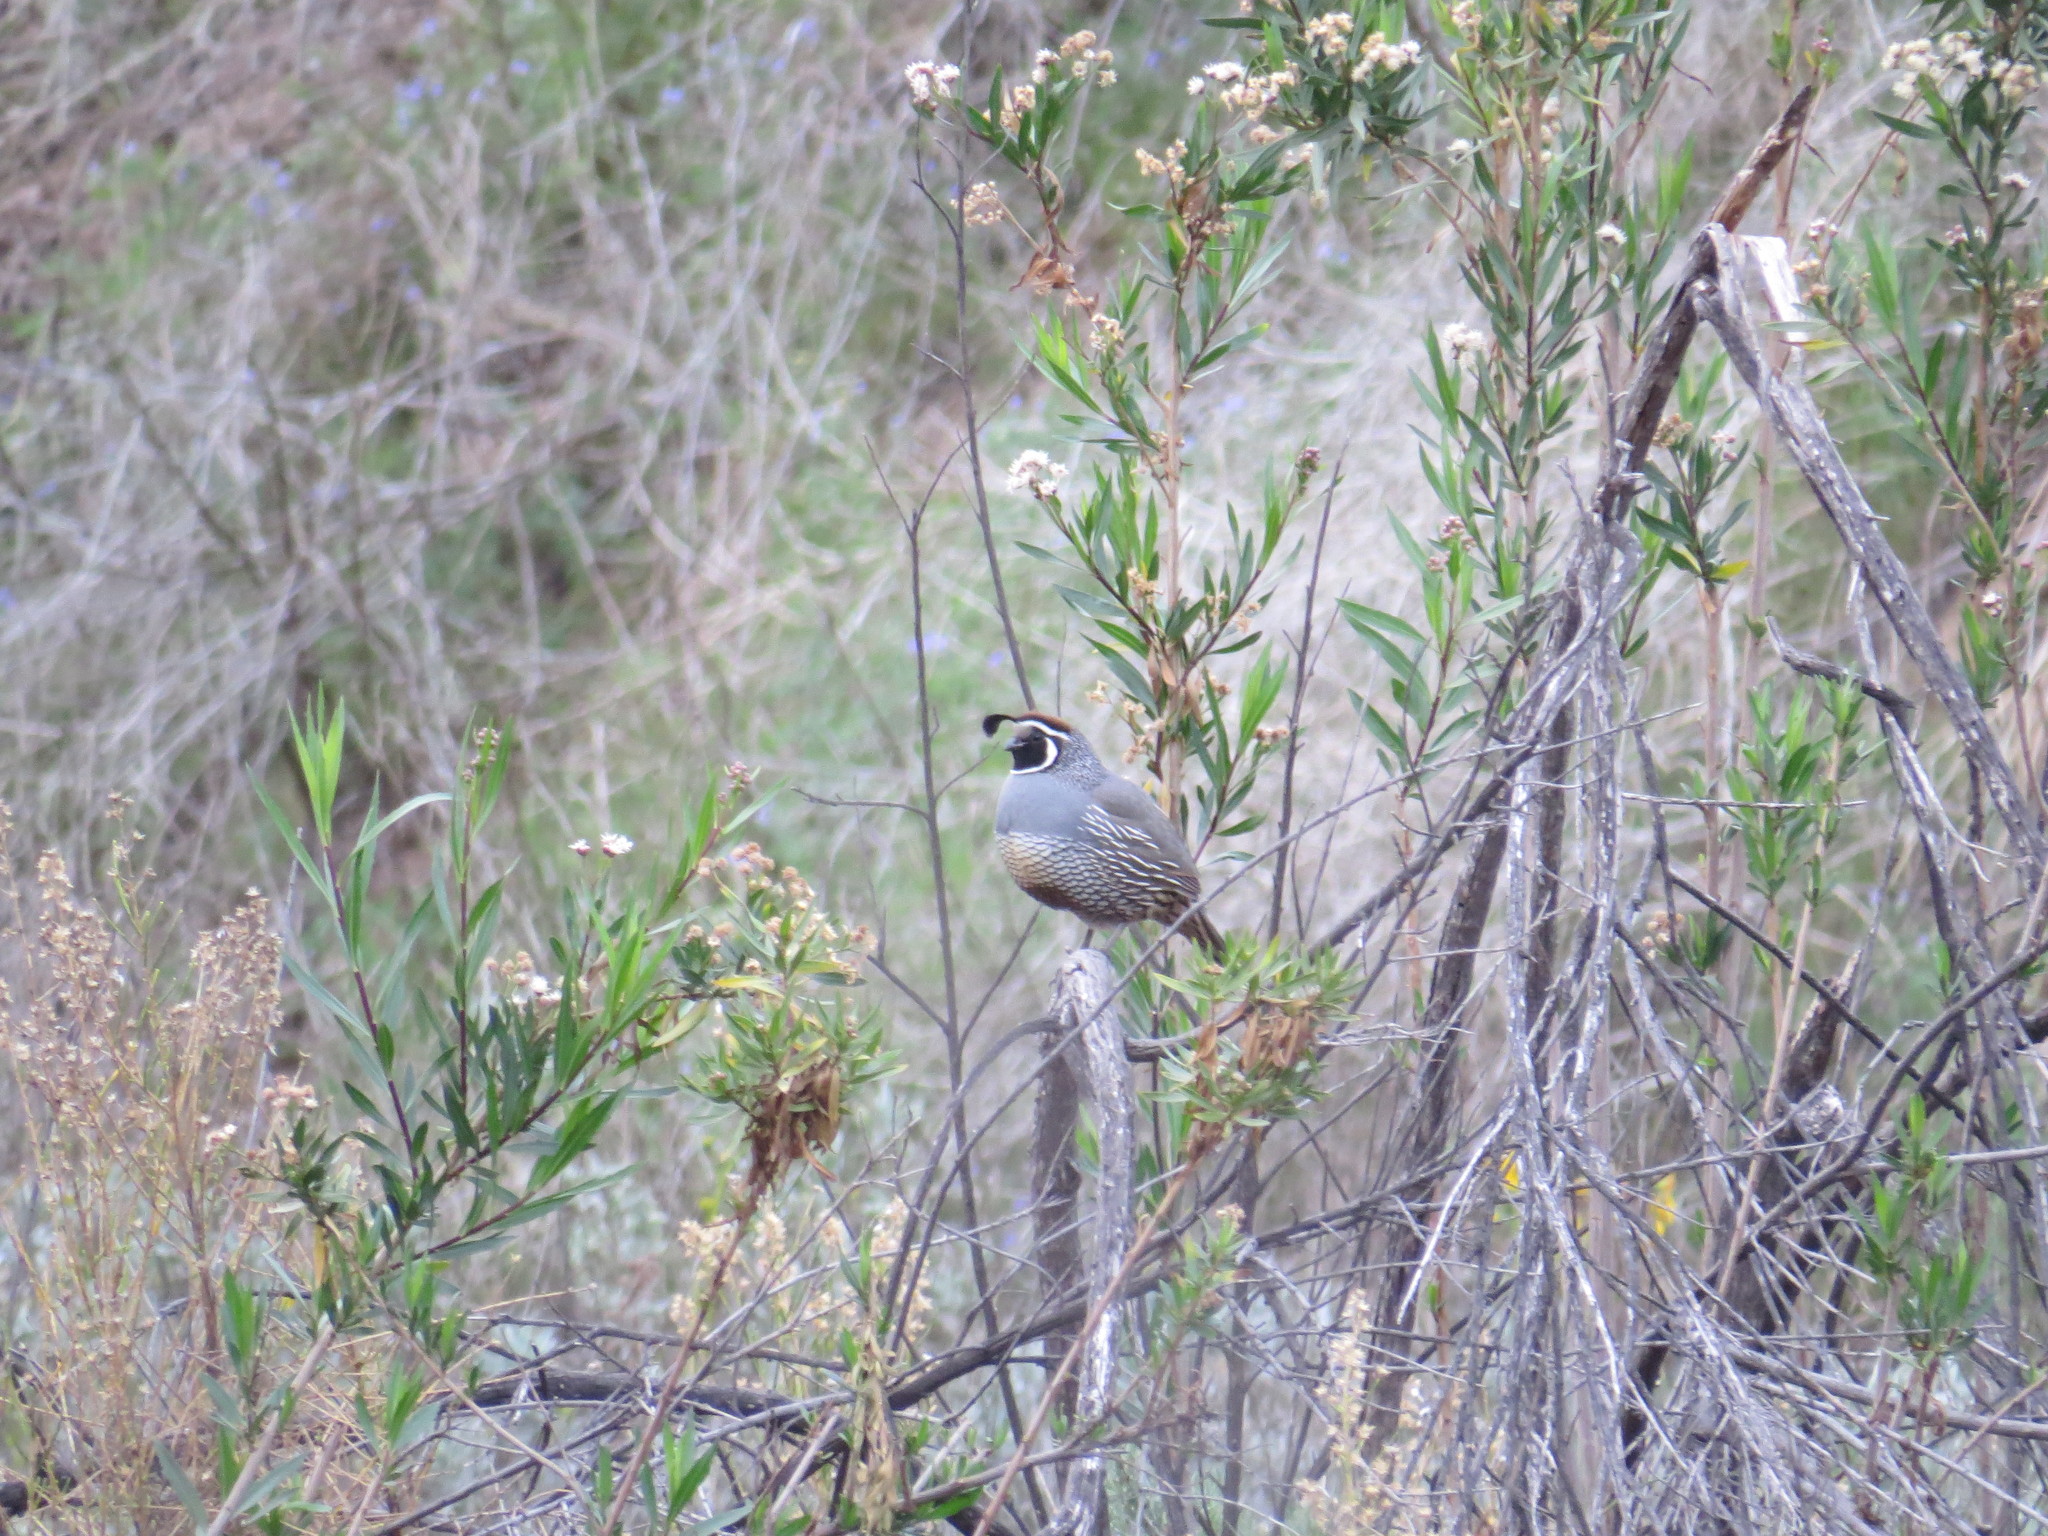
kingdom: Animalia
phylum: Chordata
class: Aves
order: Galliformes
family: Odontophoridae
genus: Callipepla
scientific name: Callipepla californica
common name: California quail
